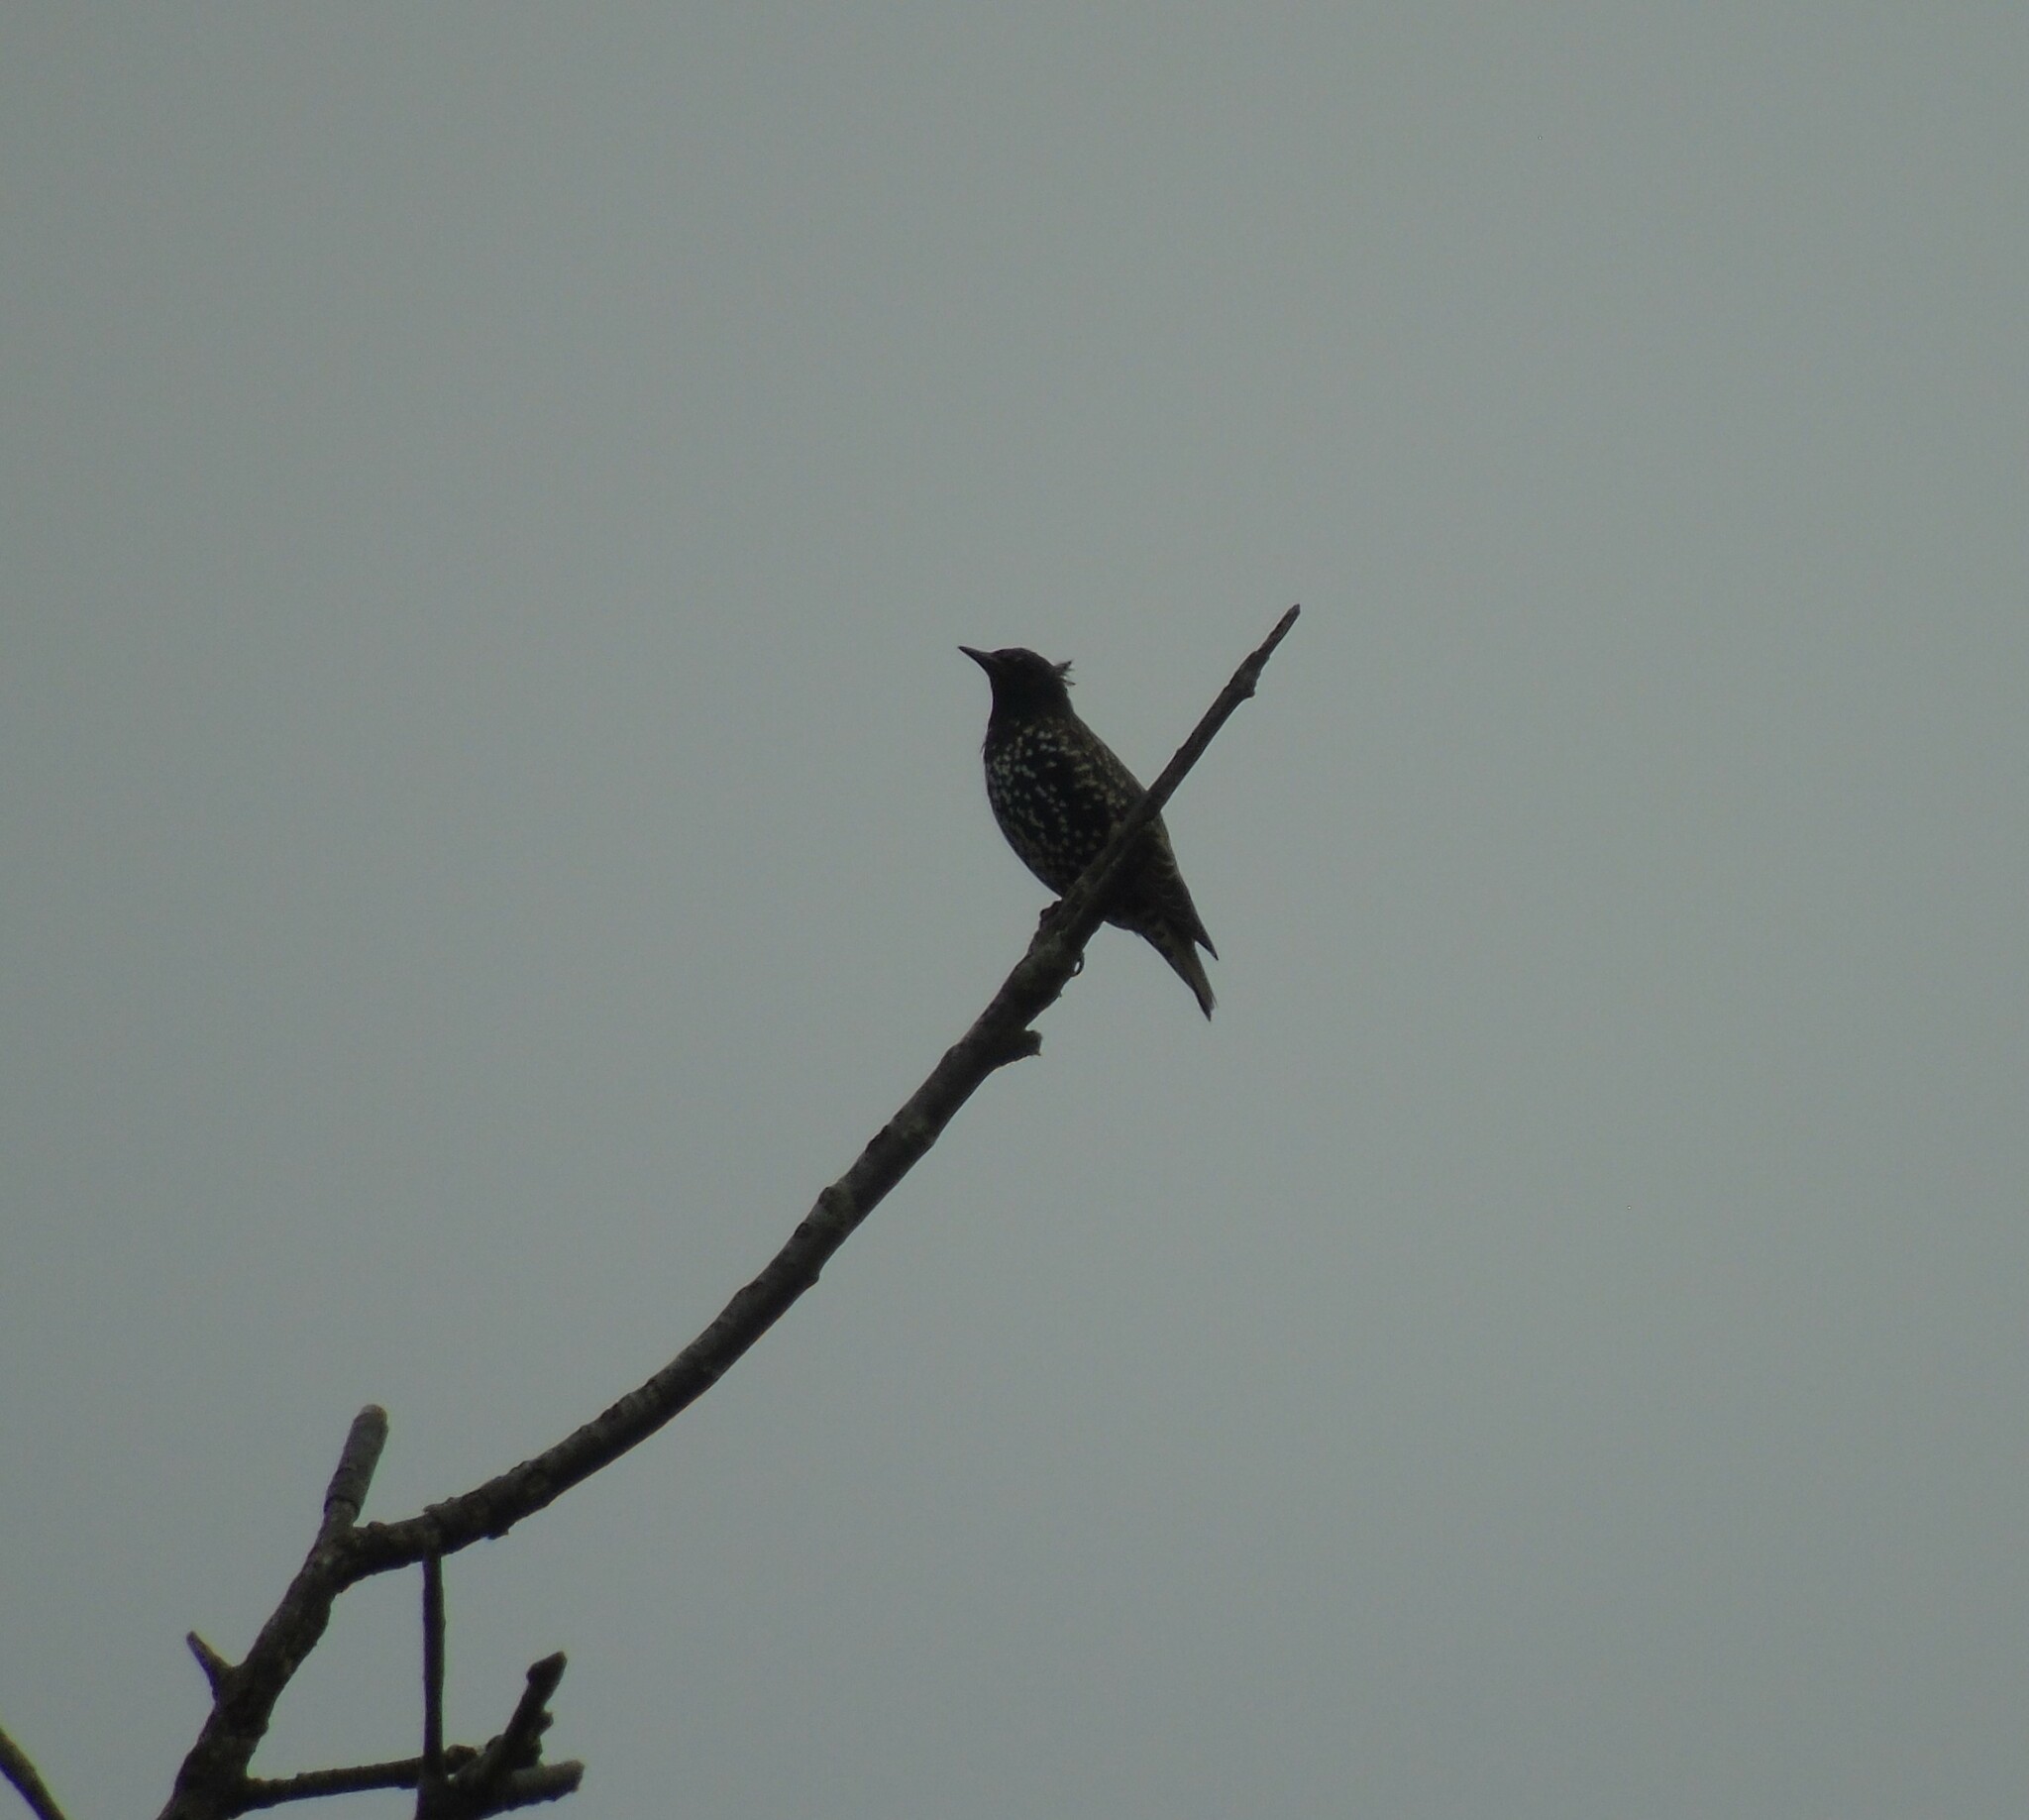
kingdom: Animalia
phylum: Chordata
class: Aves
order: Passeriformes
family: Sturnidae
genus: Sturnus
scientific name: Sturnus vulgaris
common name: Common starling
